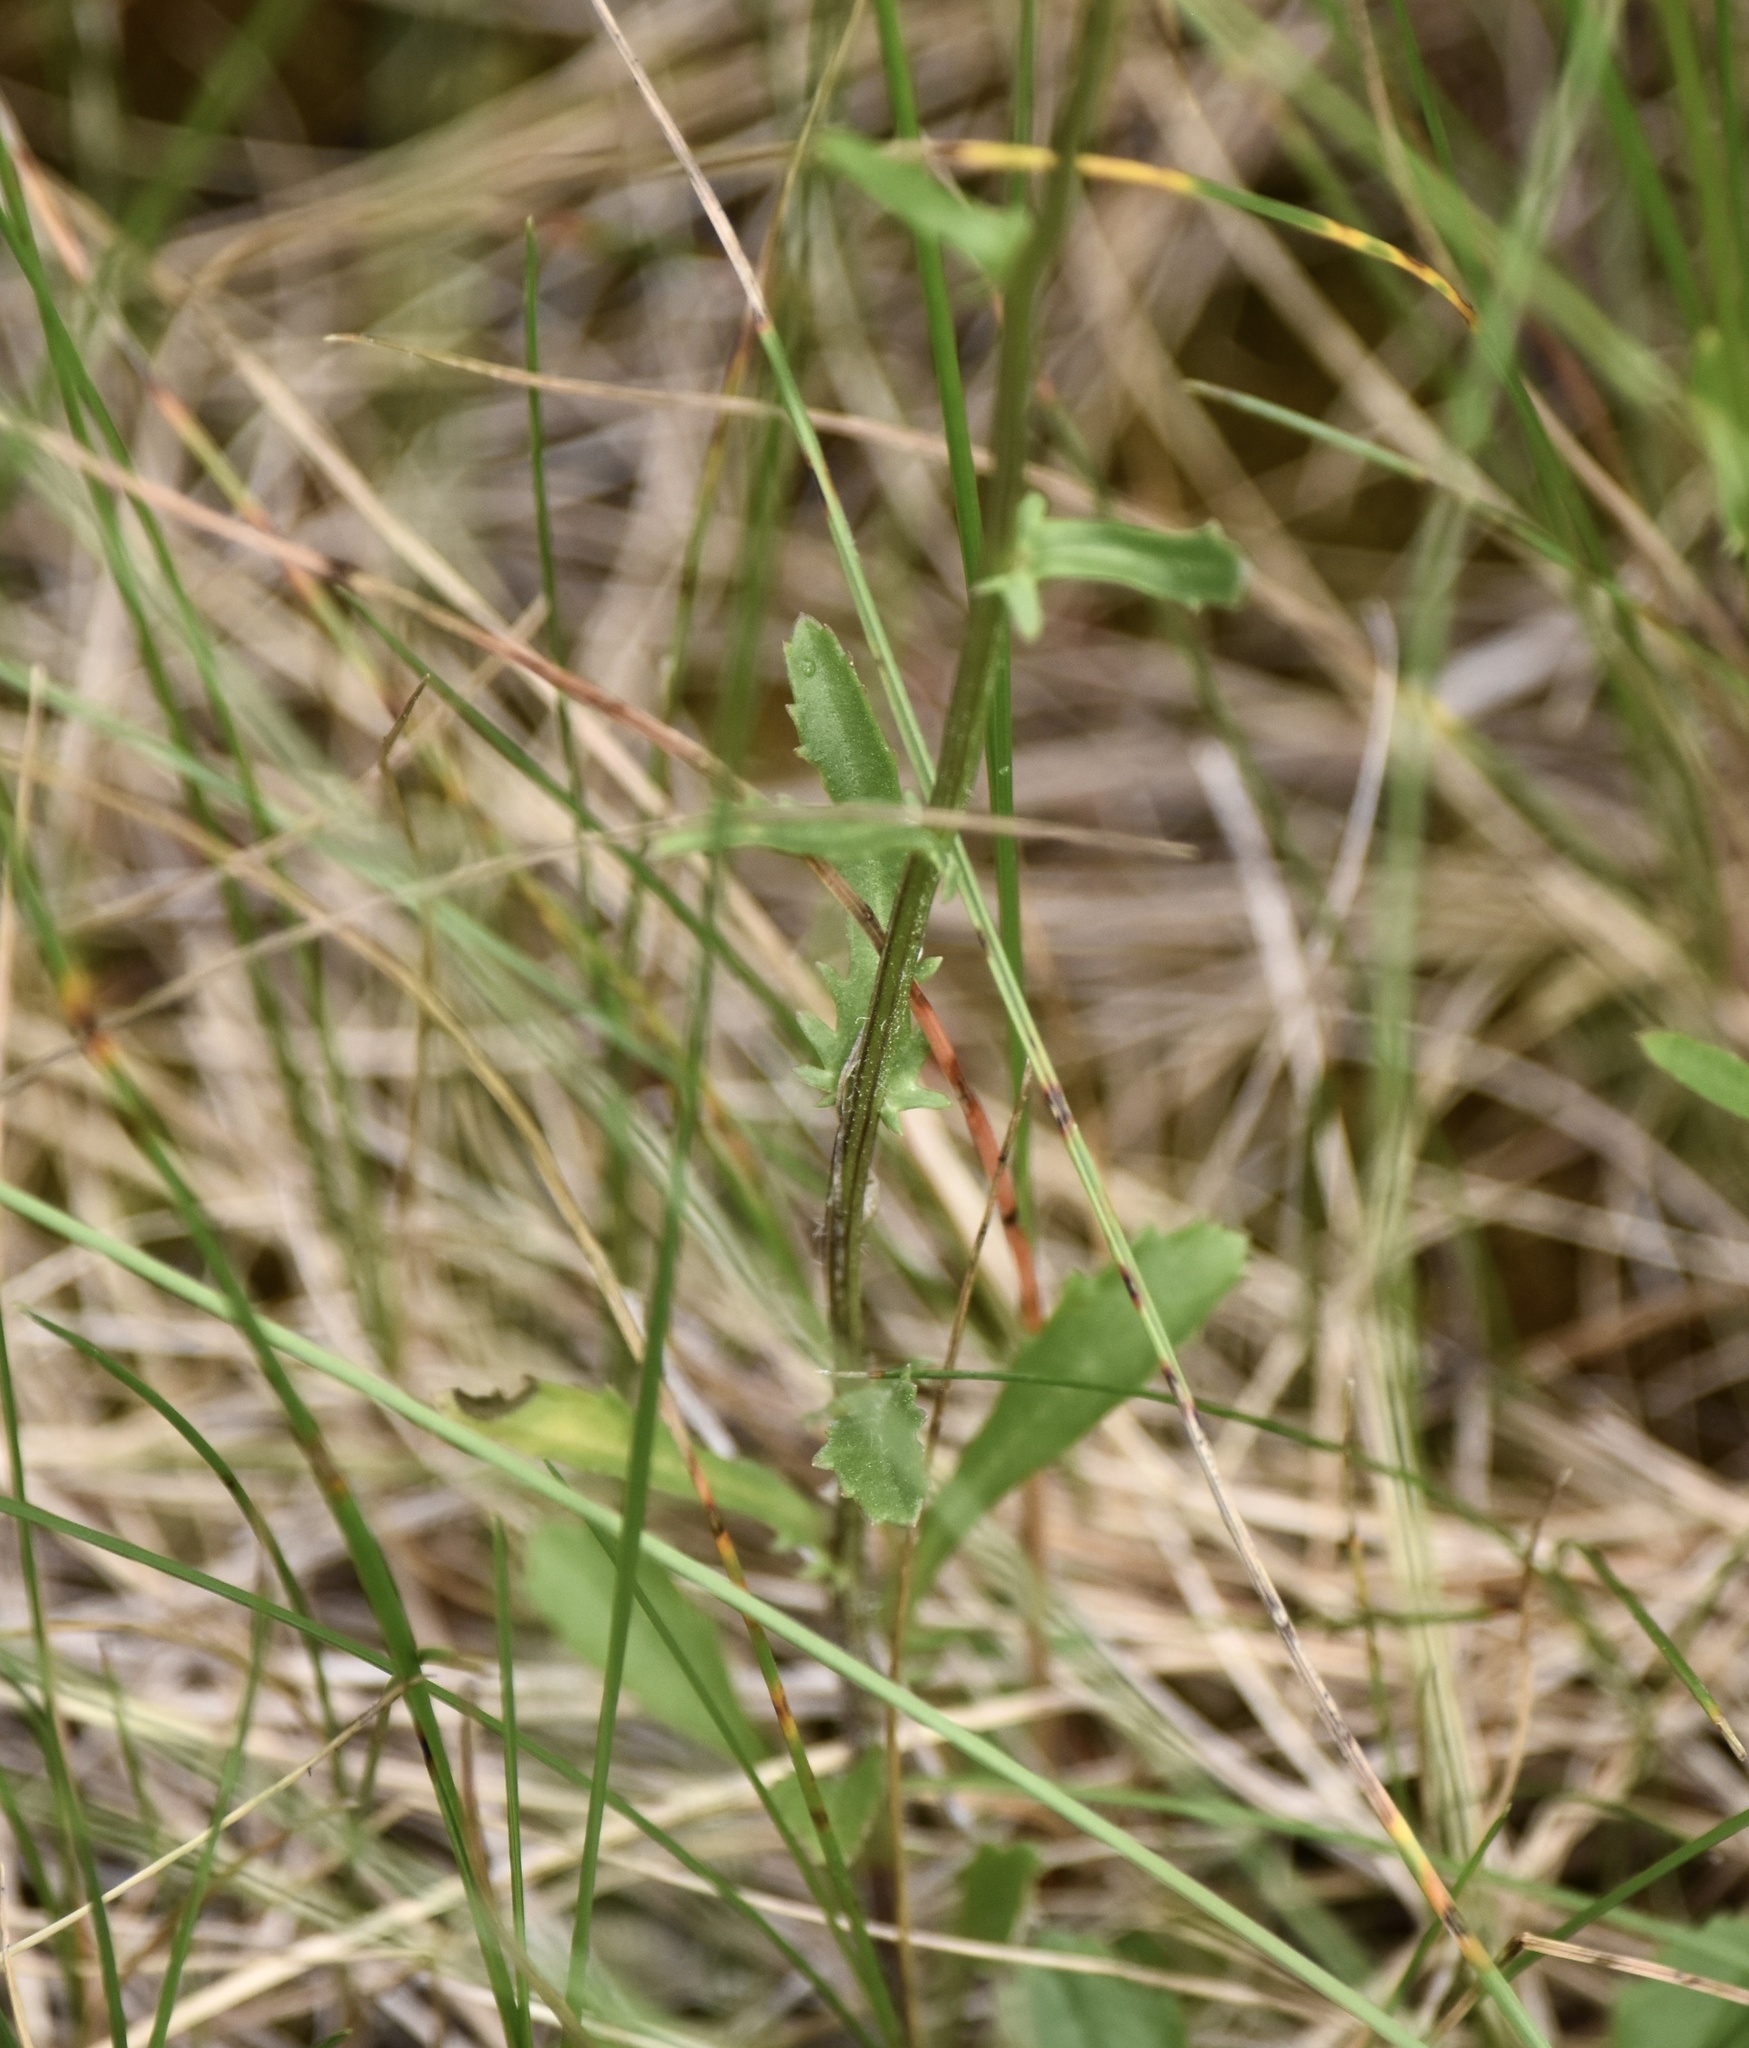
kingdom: Plantae
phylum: Tracheophyta
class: Magnoliopsida
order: Asterales
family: Asteraceae
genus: Leucanthemum
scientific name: Leucanthemum vulgare
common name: Oxeye daisy
